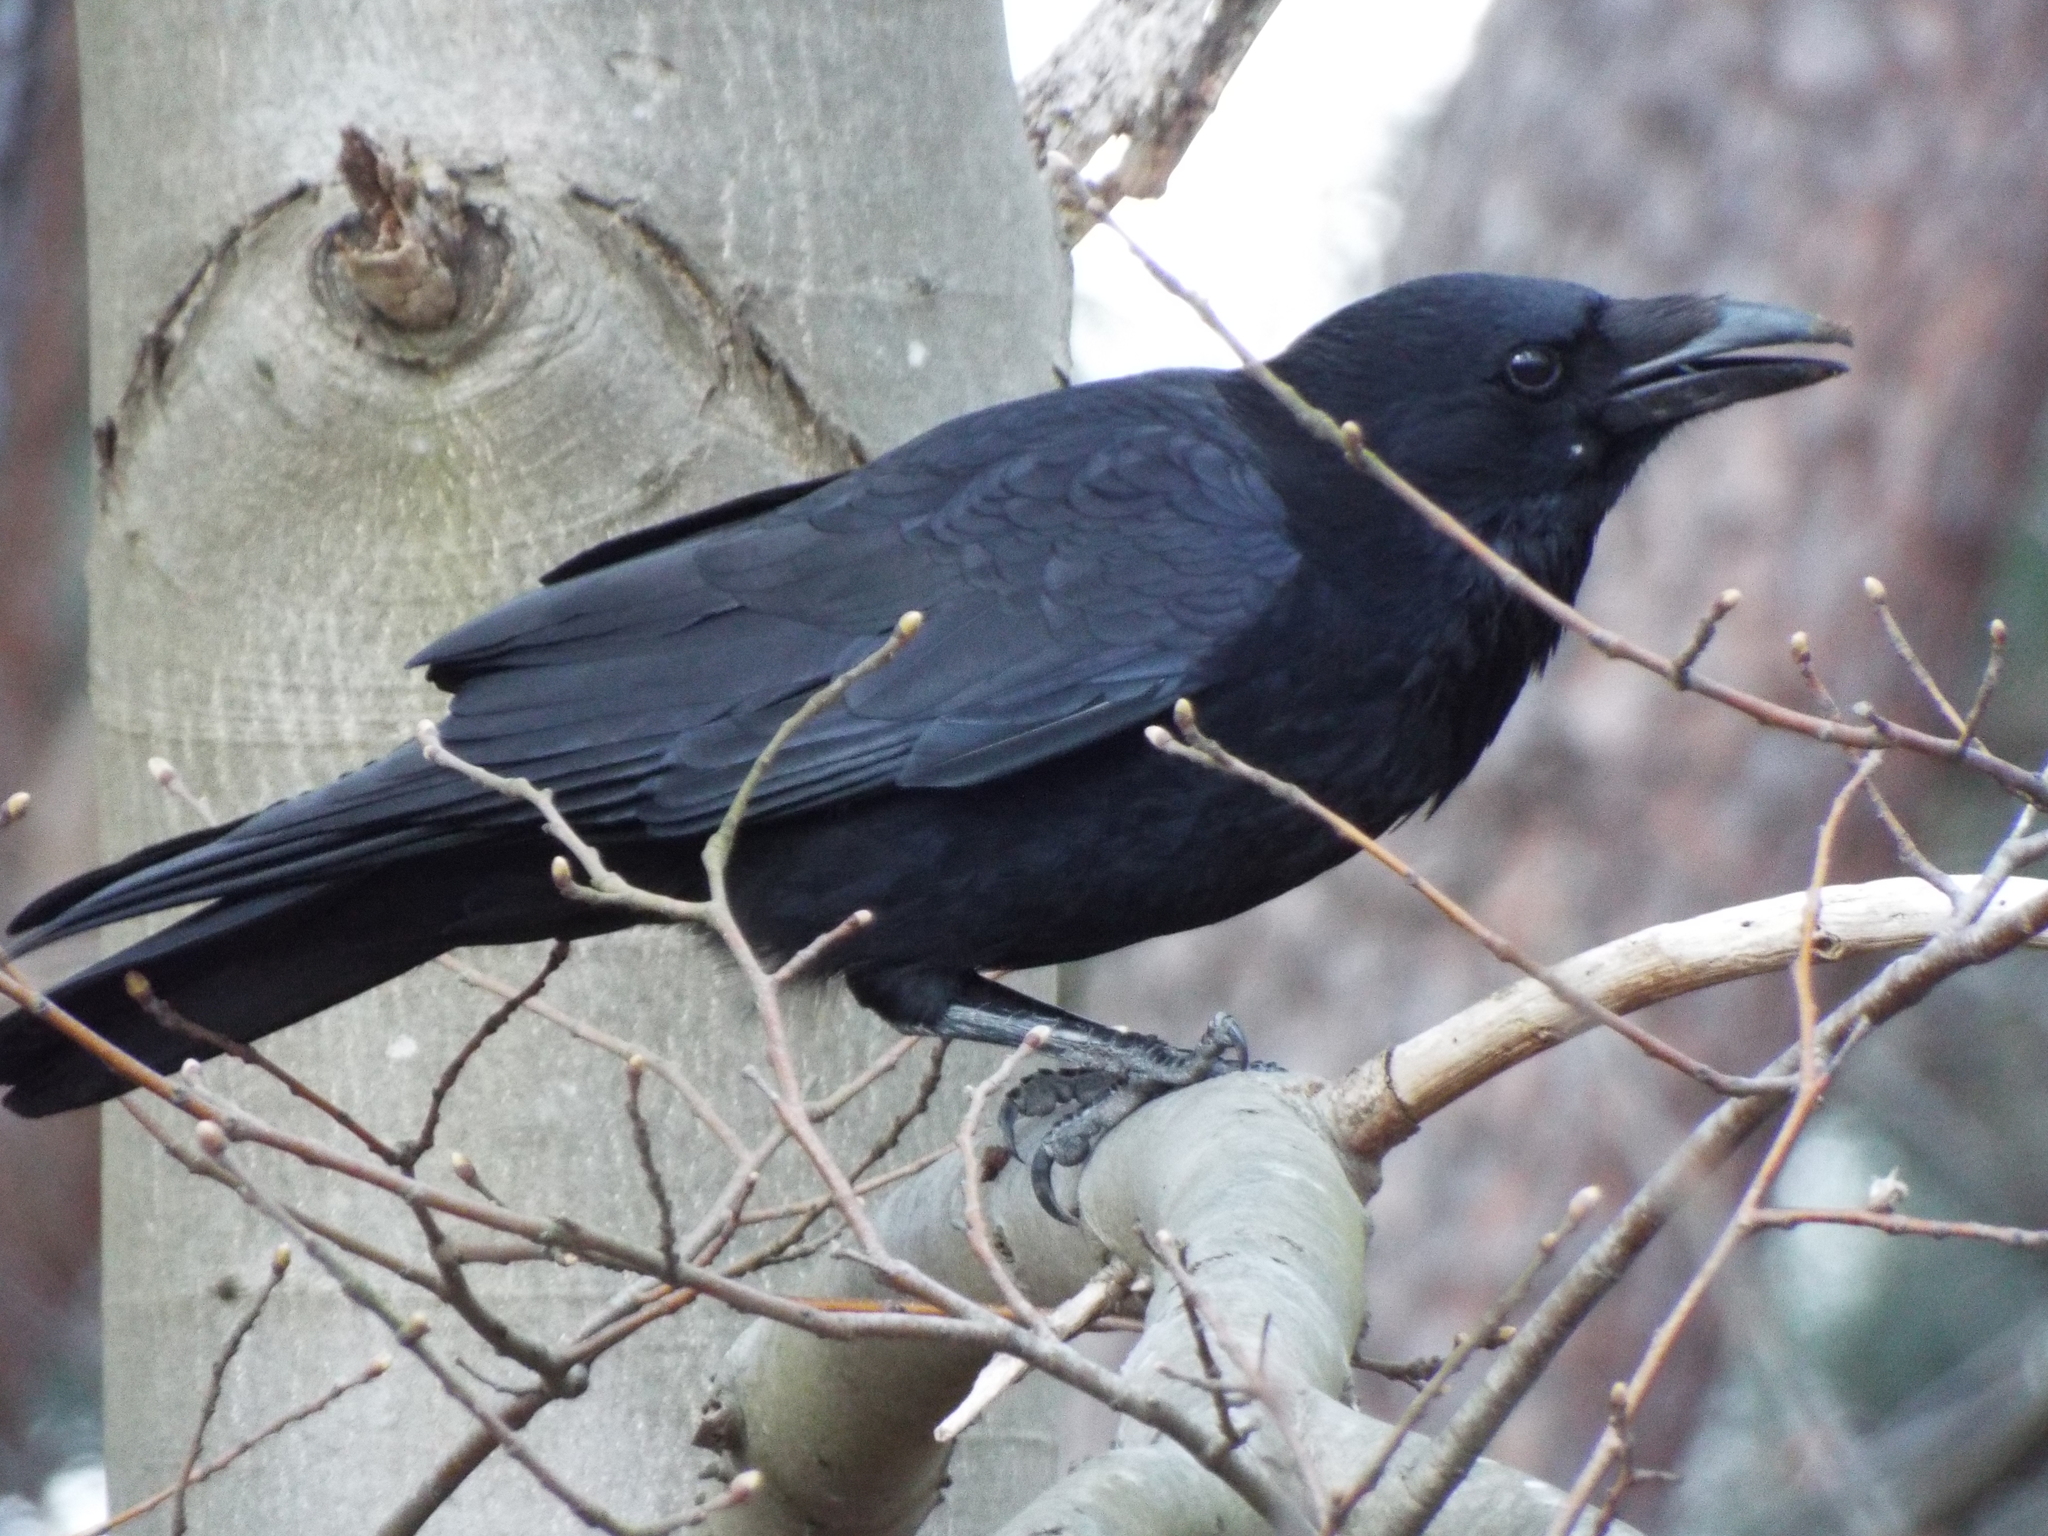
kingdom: Animalia
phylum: Chordata
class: Aves
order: Passeriformes
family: Corvidae
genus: Corvus
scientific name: Corvus corone
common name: Carrion crow
